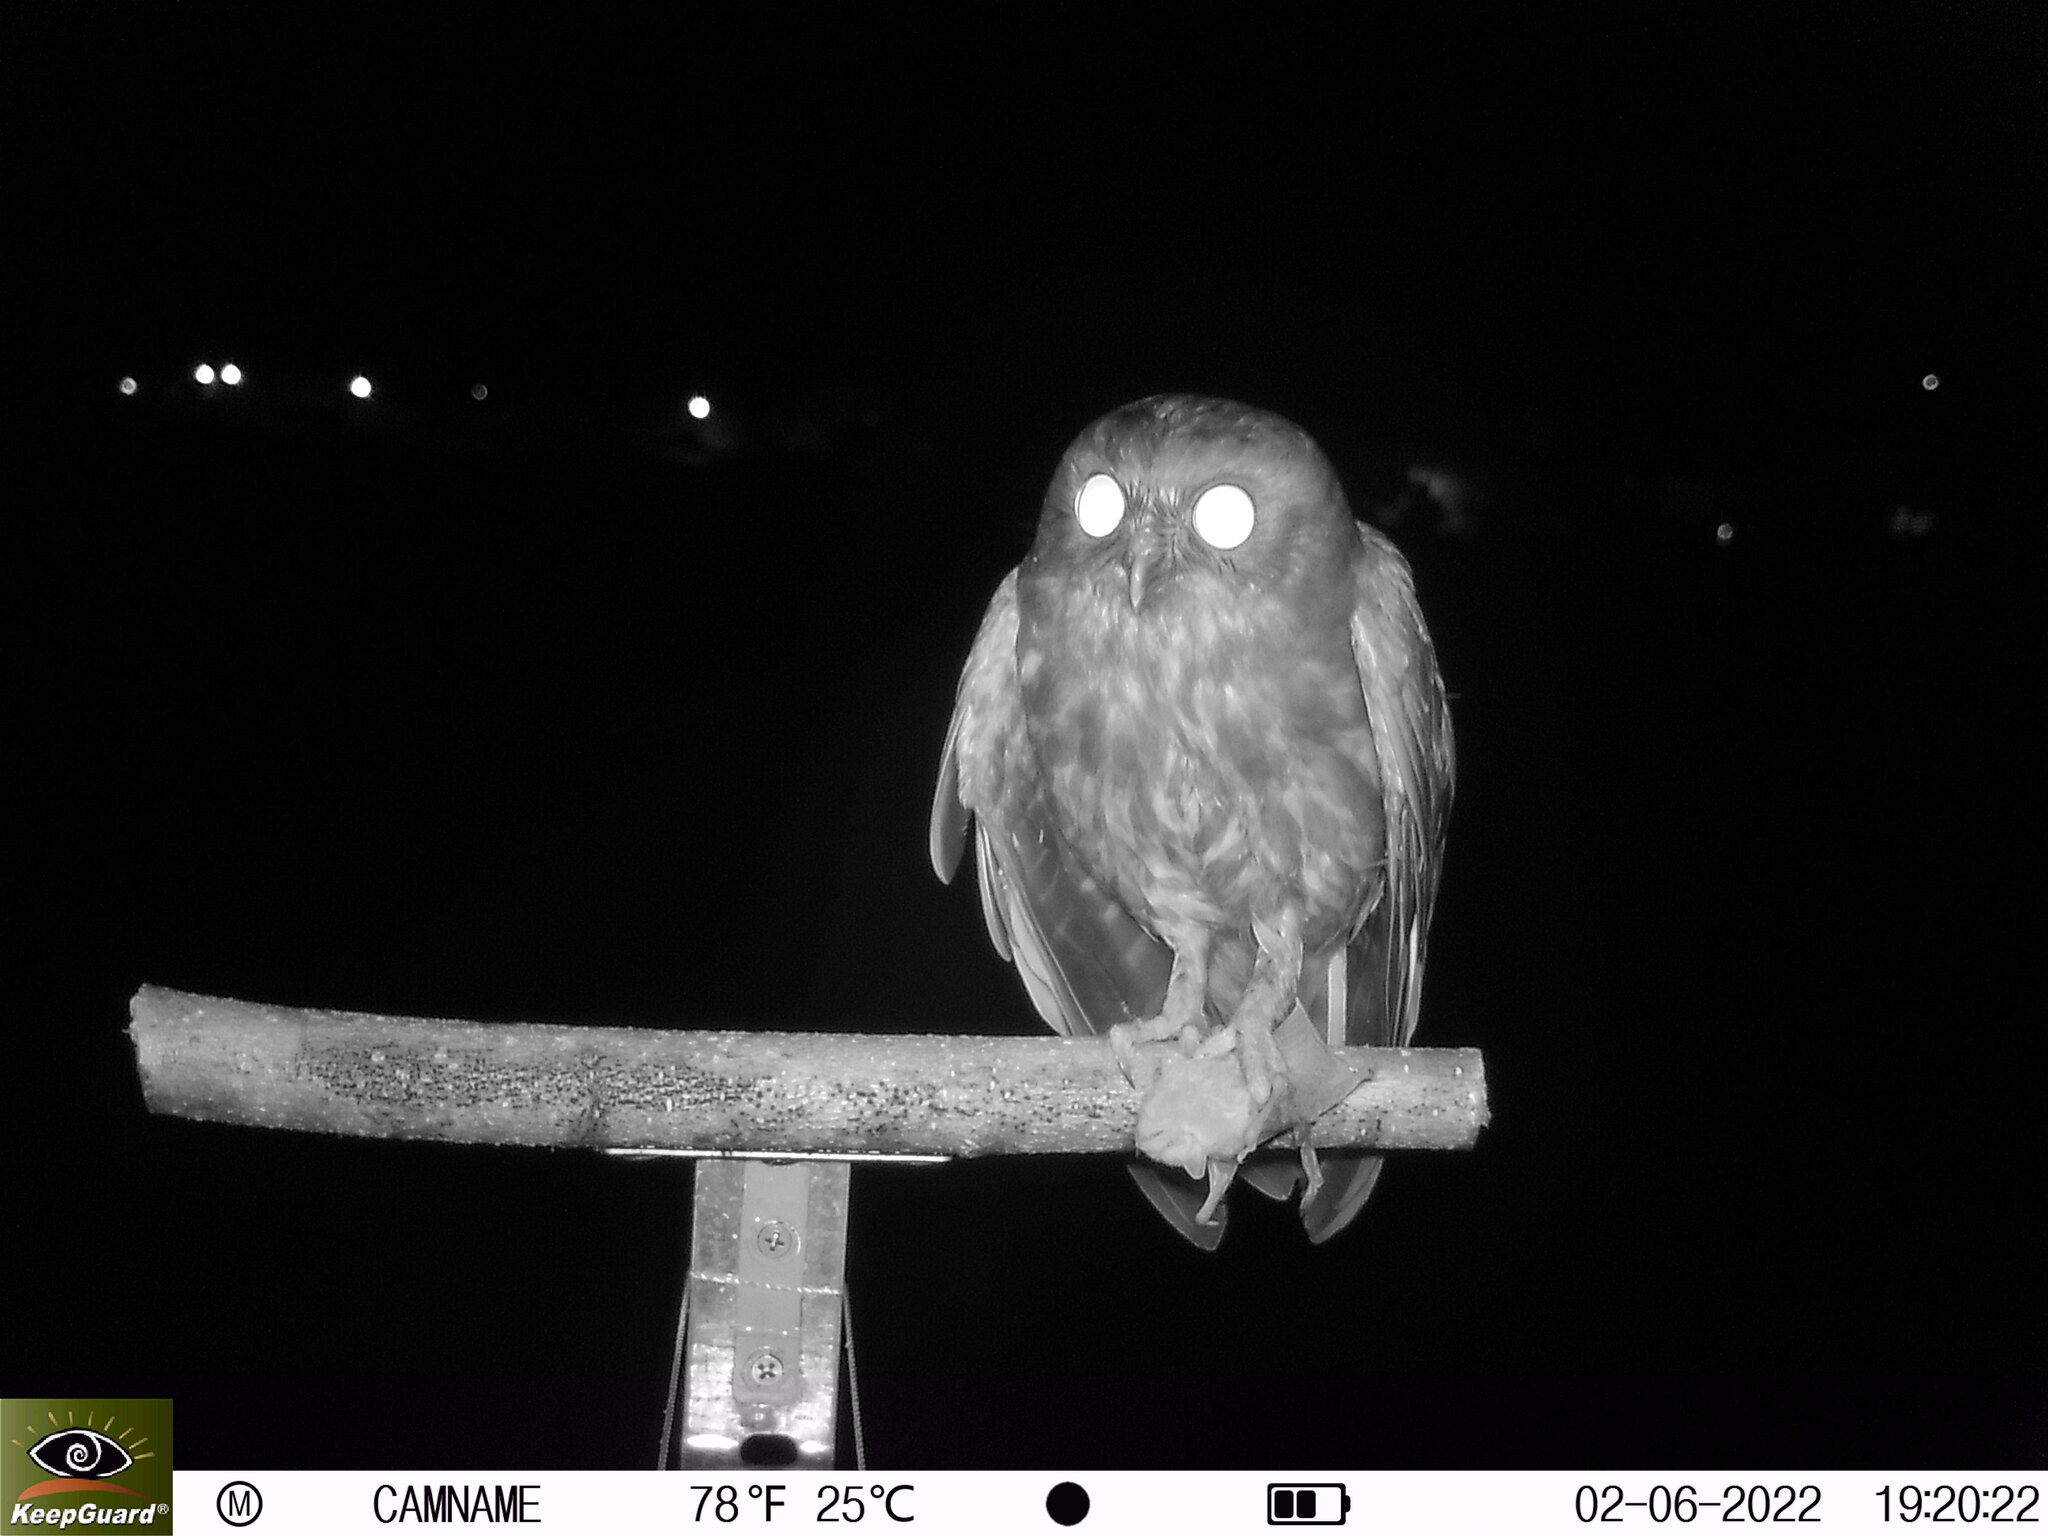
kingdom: Animalia
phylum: Chordata
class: Aves
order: Strigiformes
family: Strigidae
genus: Ninox
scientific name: Ninox japonica
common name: Northern boobook
